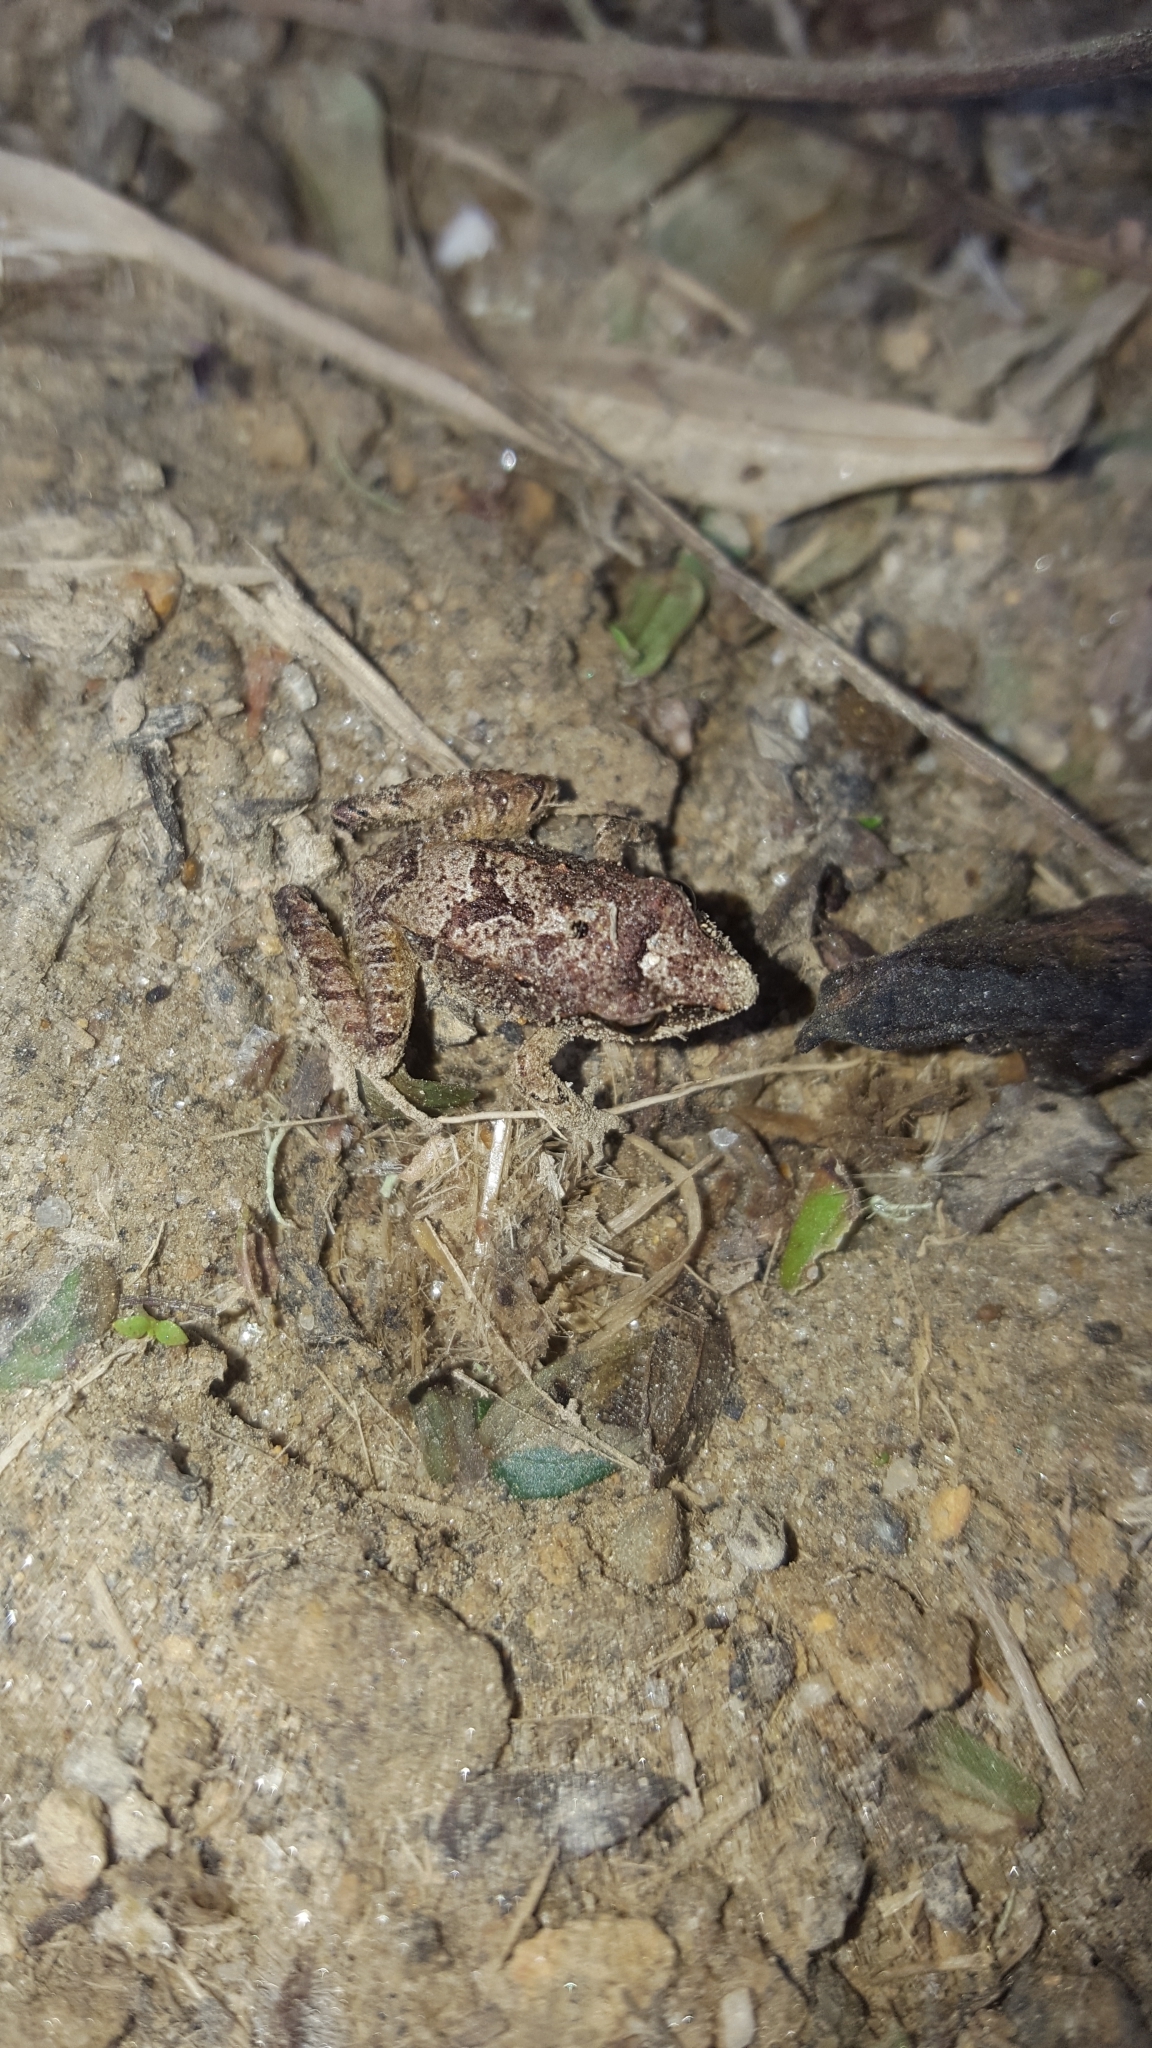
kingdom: Animalia
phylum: Chordata
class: Amphibia
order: Anura
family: Craugastoridae
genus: Pristimantis
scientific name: Pristimantis thectopternus
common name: Northern cordilleras robber frog
